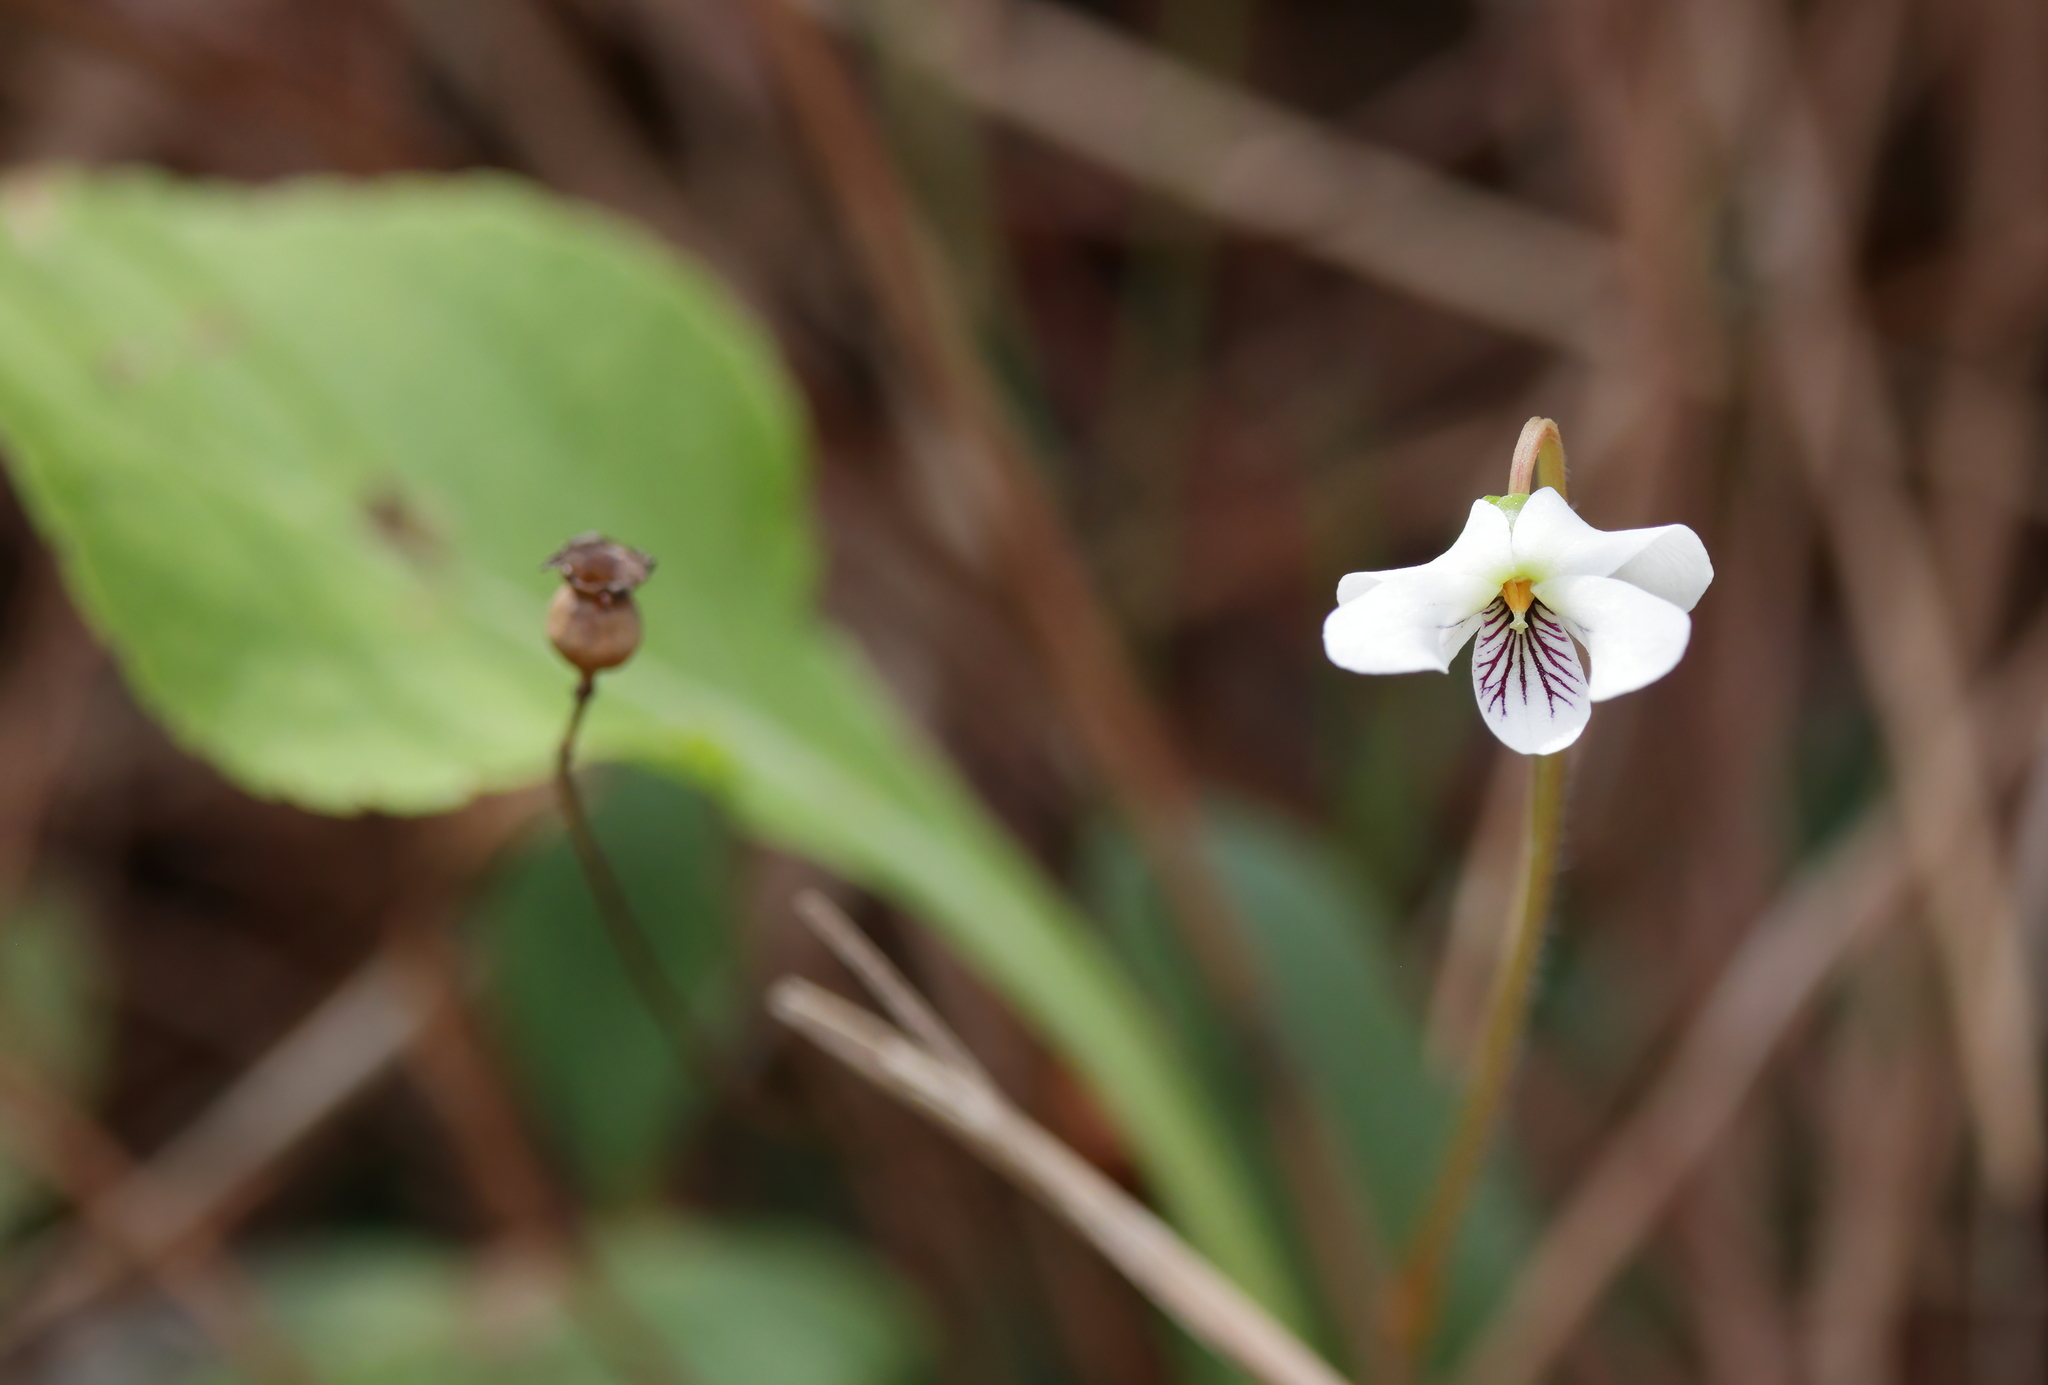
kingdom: Plantae
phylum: Tracheophyta
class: Magnoliopsida
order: Malpighiales
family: Violaceae
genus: Viola
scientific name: Viola primulifolia
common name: Primrose-leaf violet
